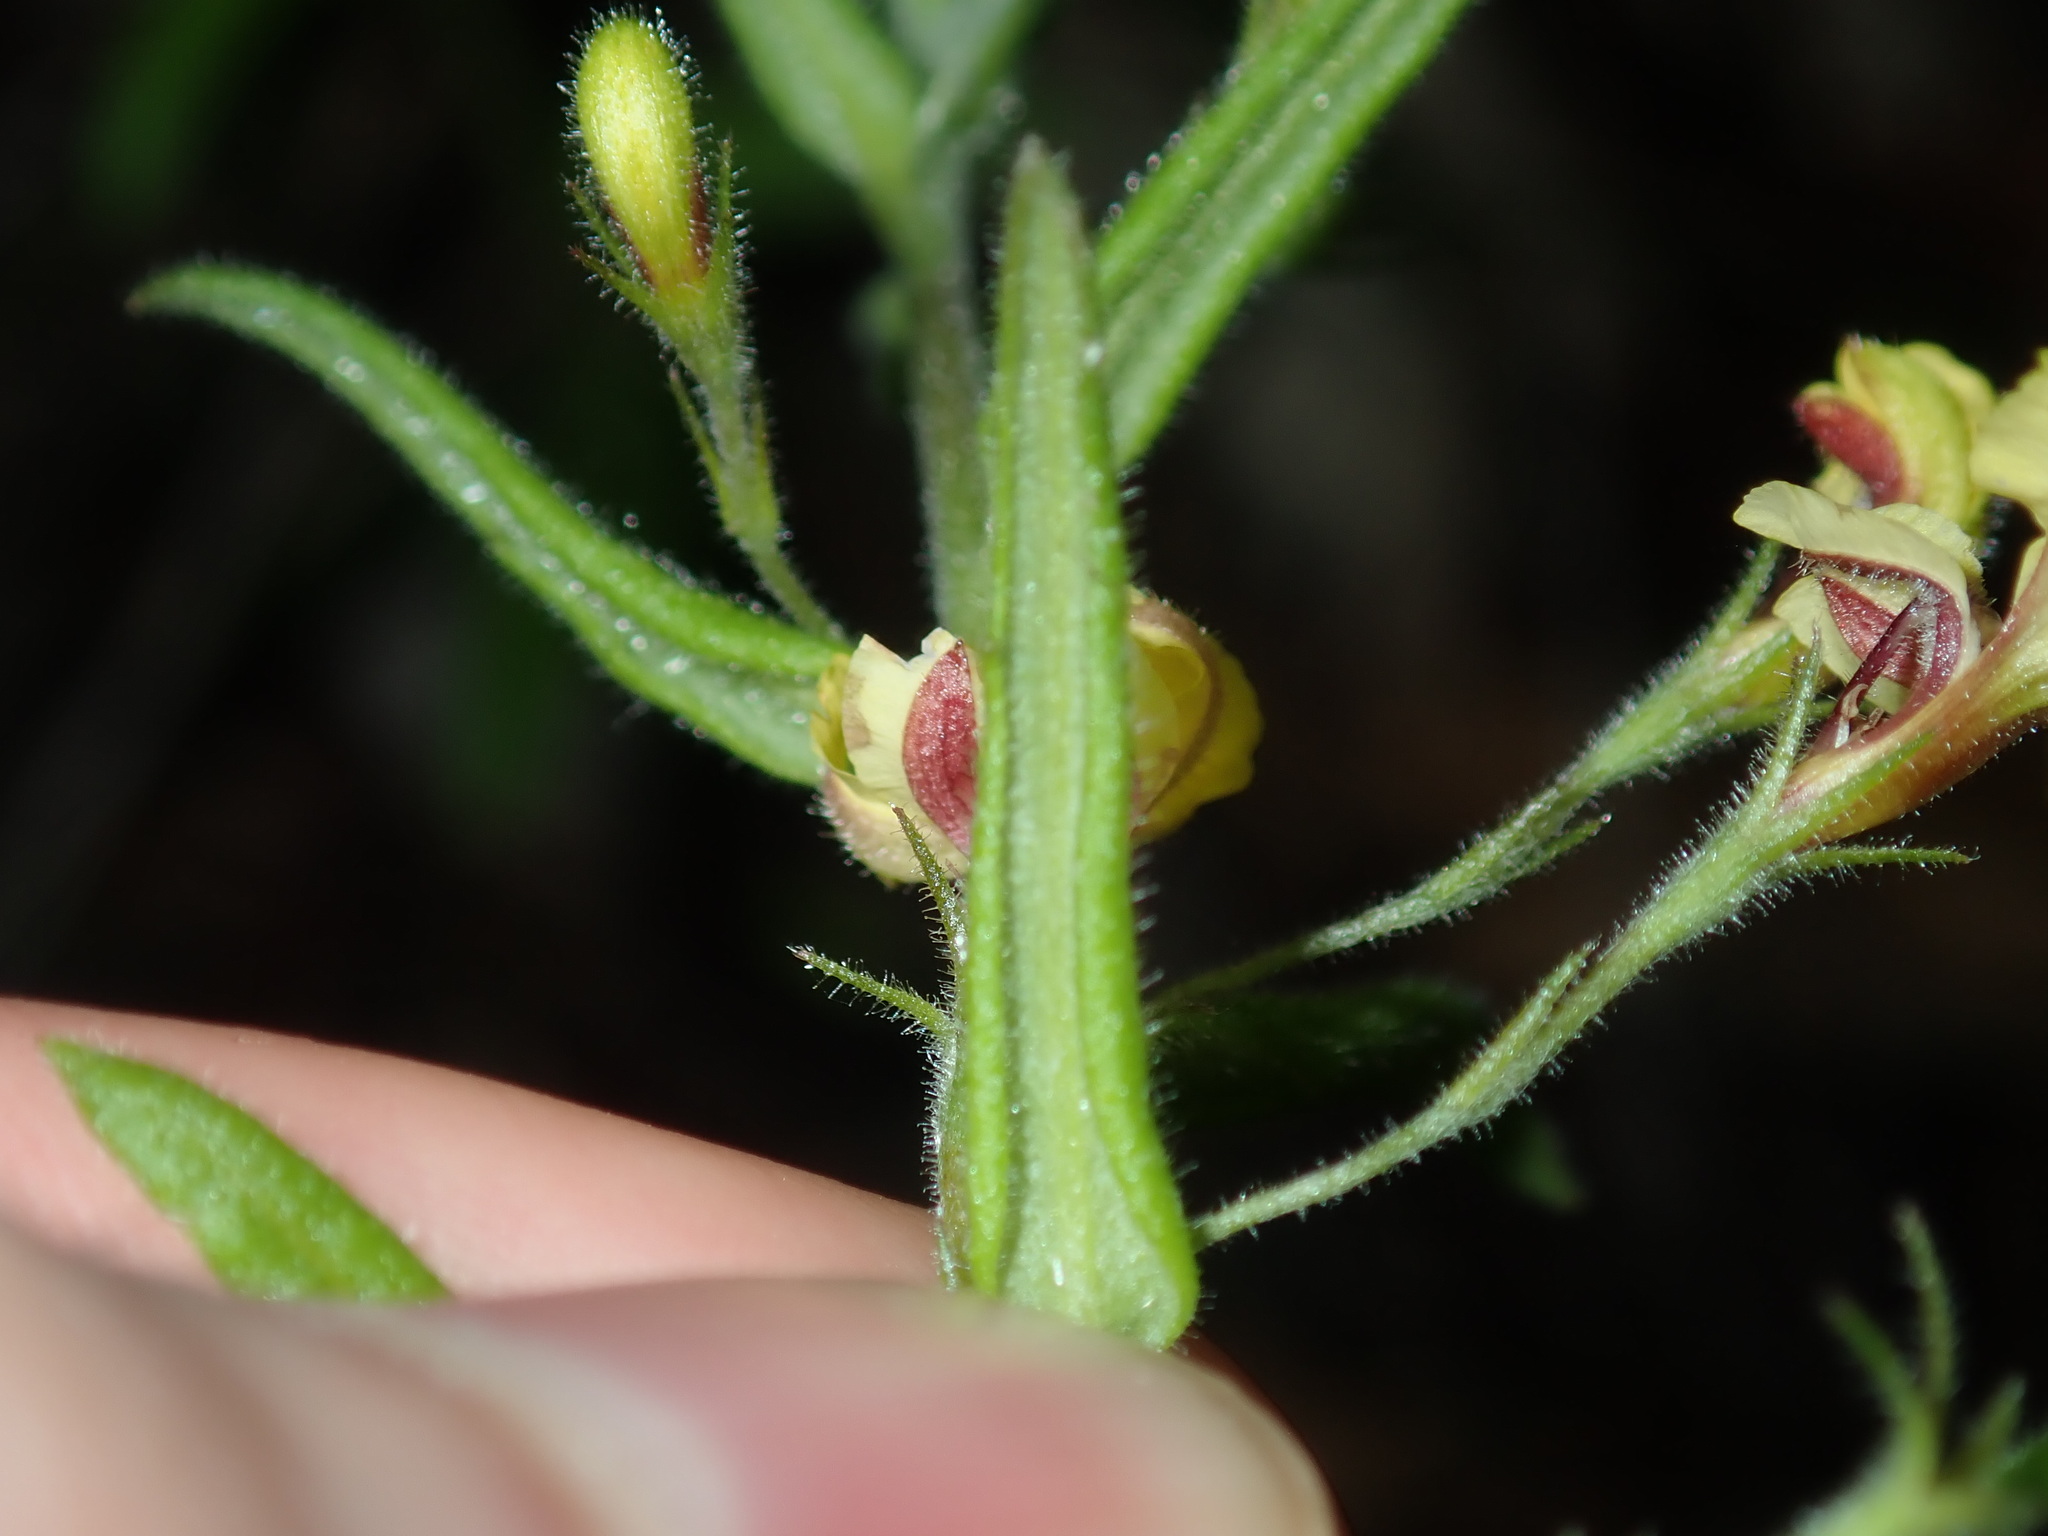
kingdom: Plantae
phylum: Tracheophyta
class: Magnoliopsida
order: Asterales
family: Goodeniaceae
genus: Goodenia
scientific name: Goodenia heterophylla
